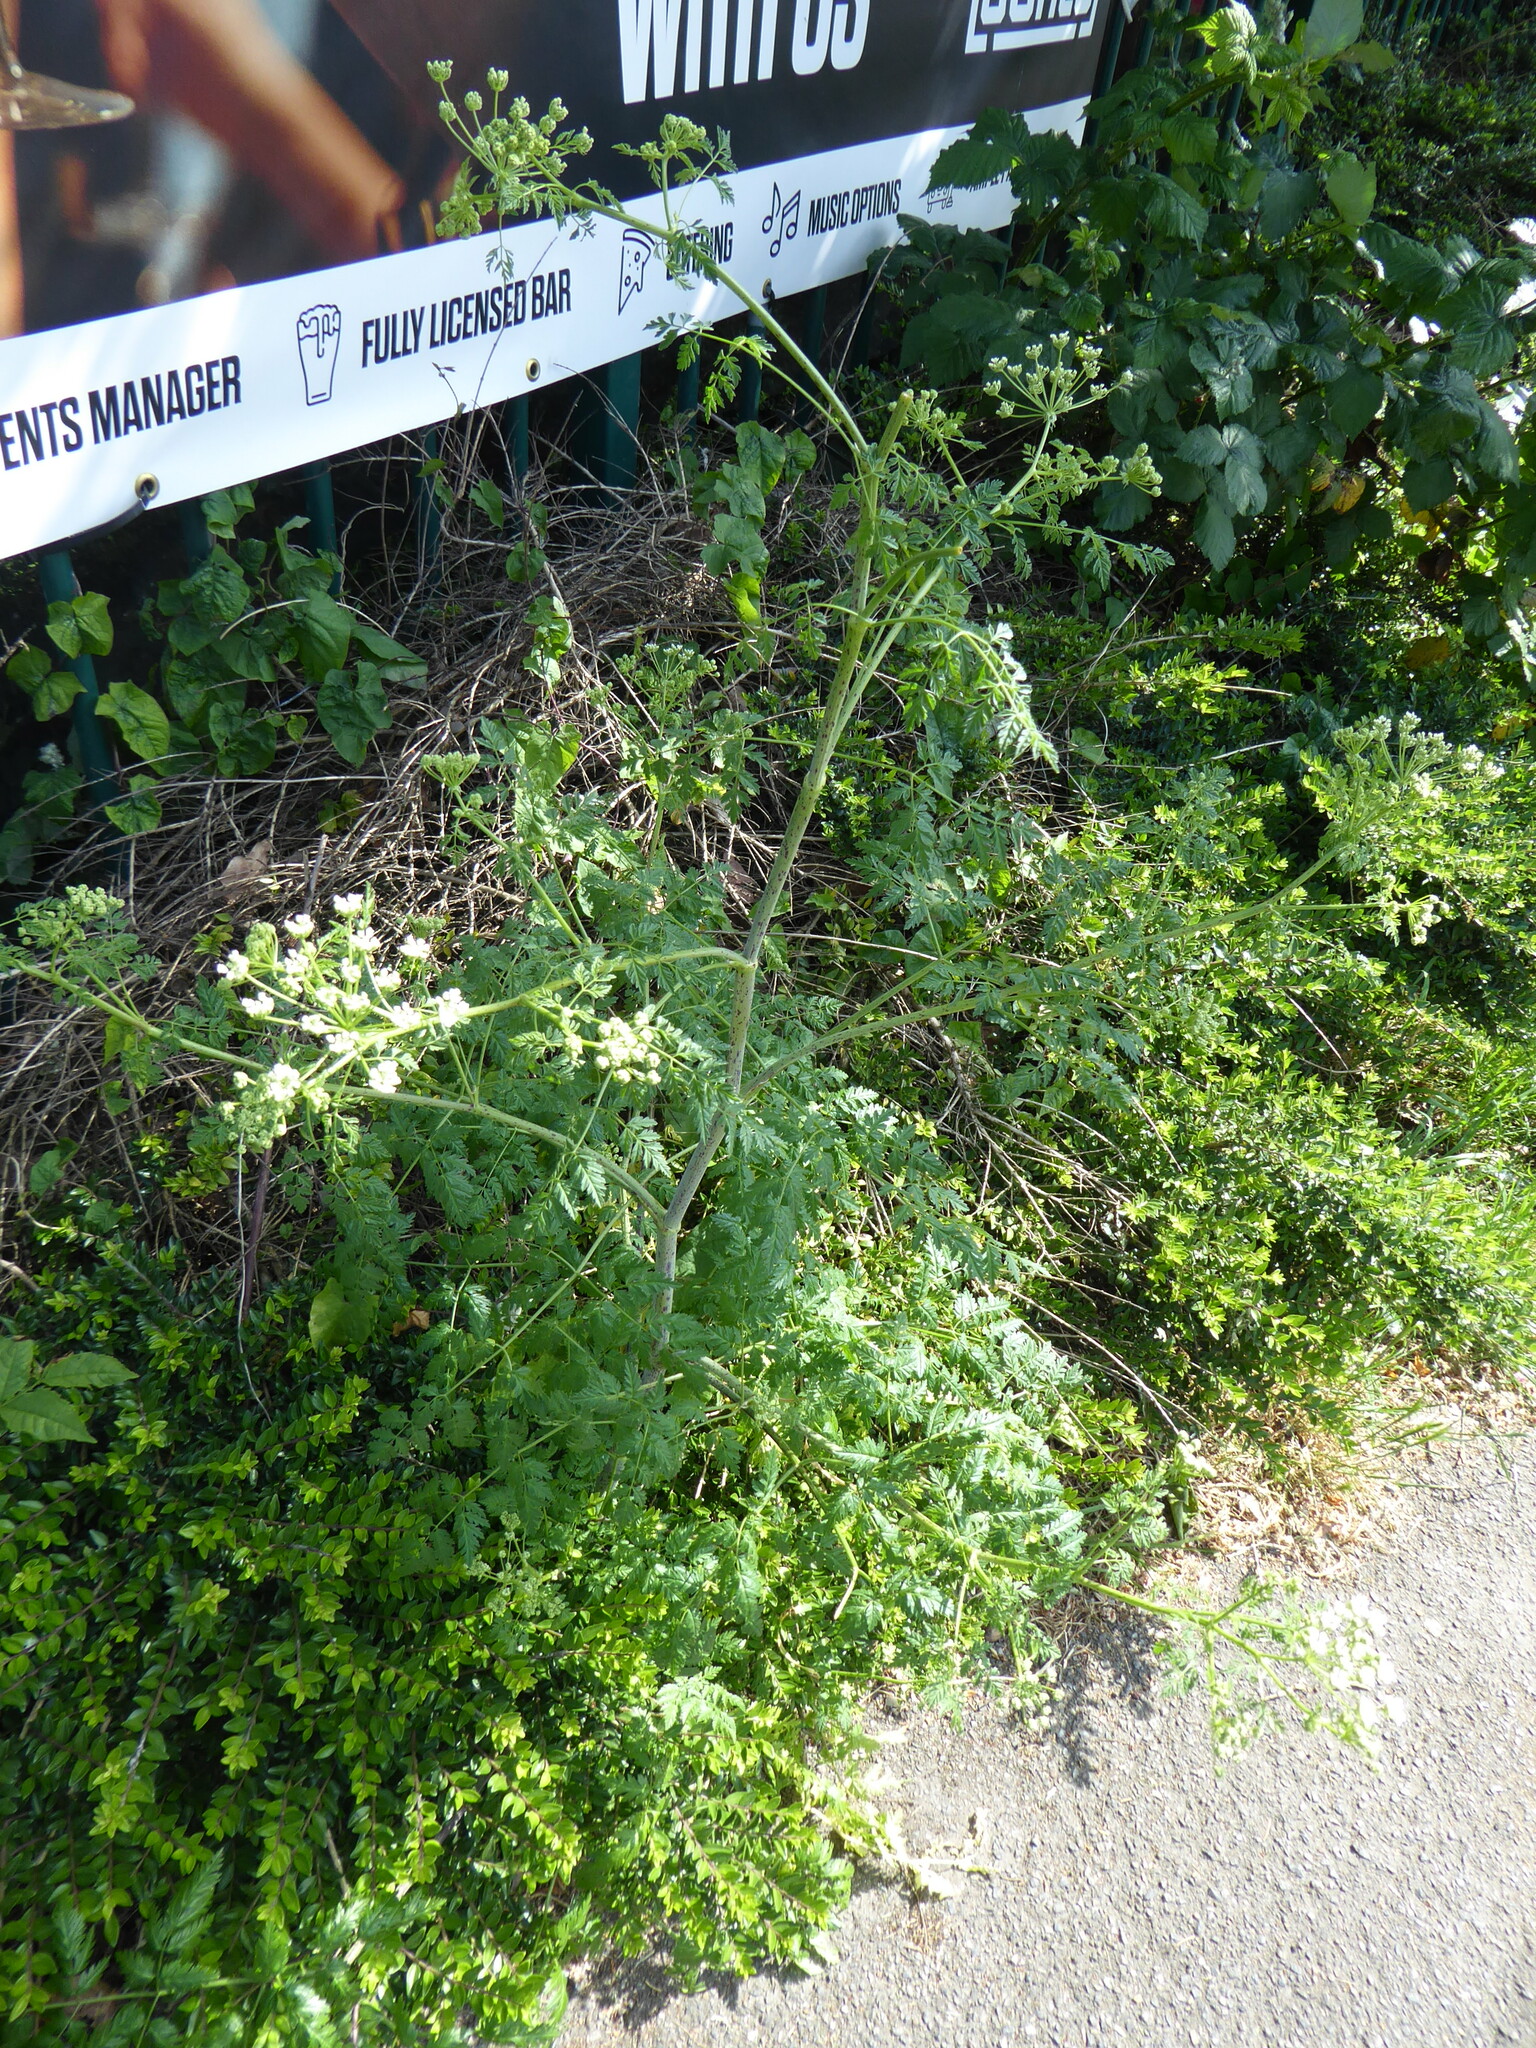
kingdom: Plantae
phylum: Tracheophyta
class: Magnoliopsida
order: Apiales
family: Apiaceae
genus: Conium
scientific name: Conium maculatum
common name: Hemlock
